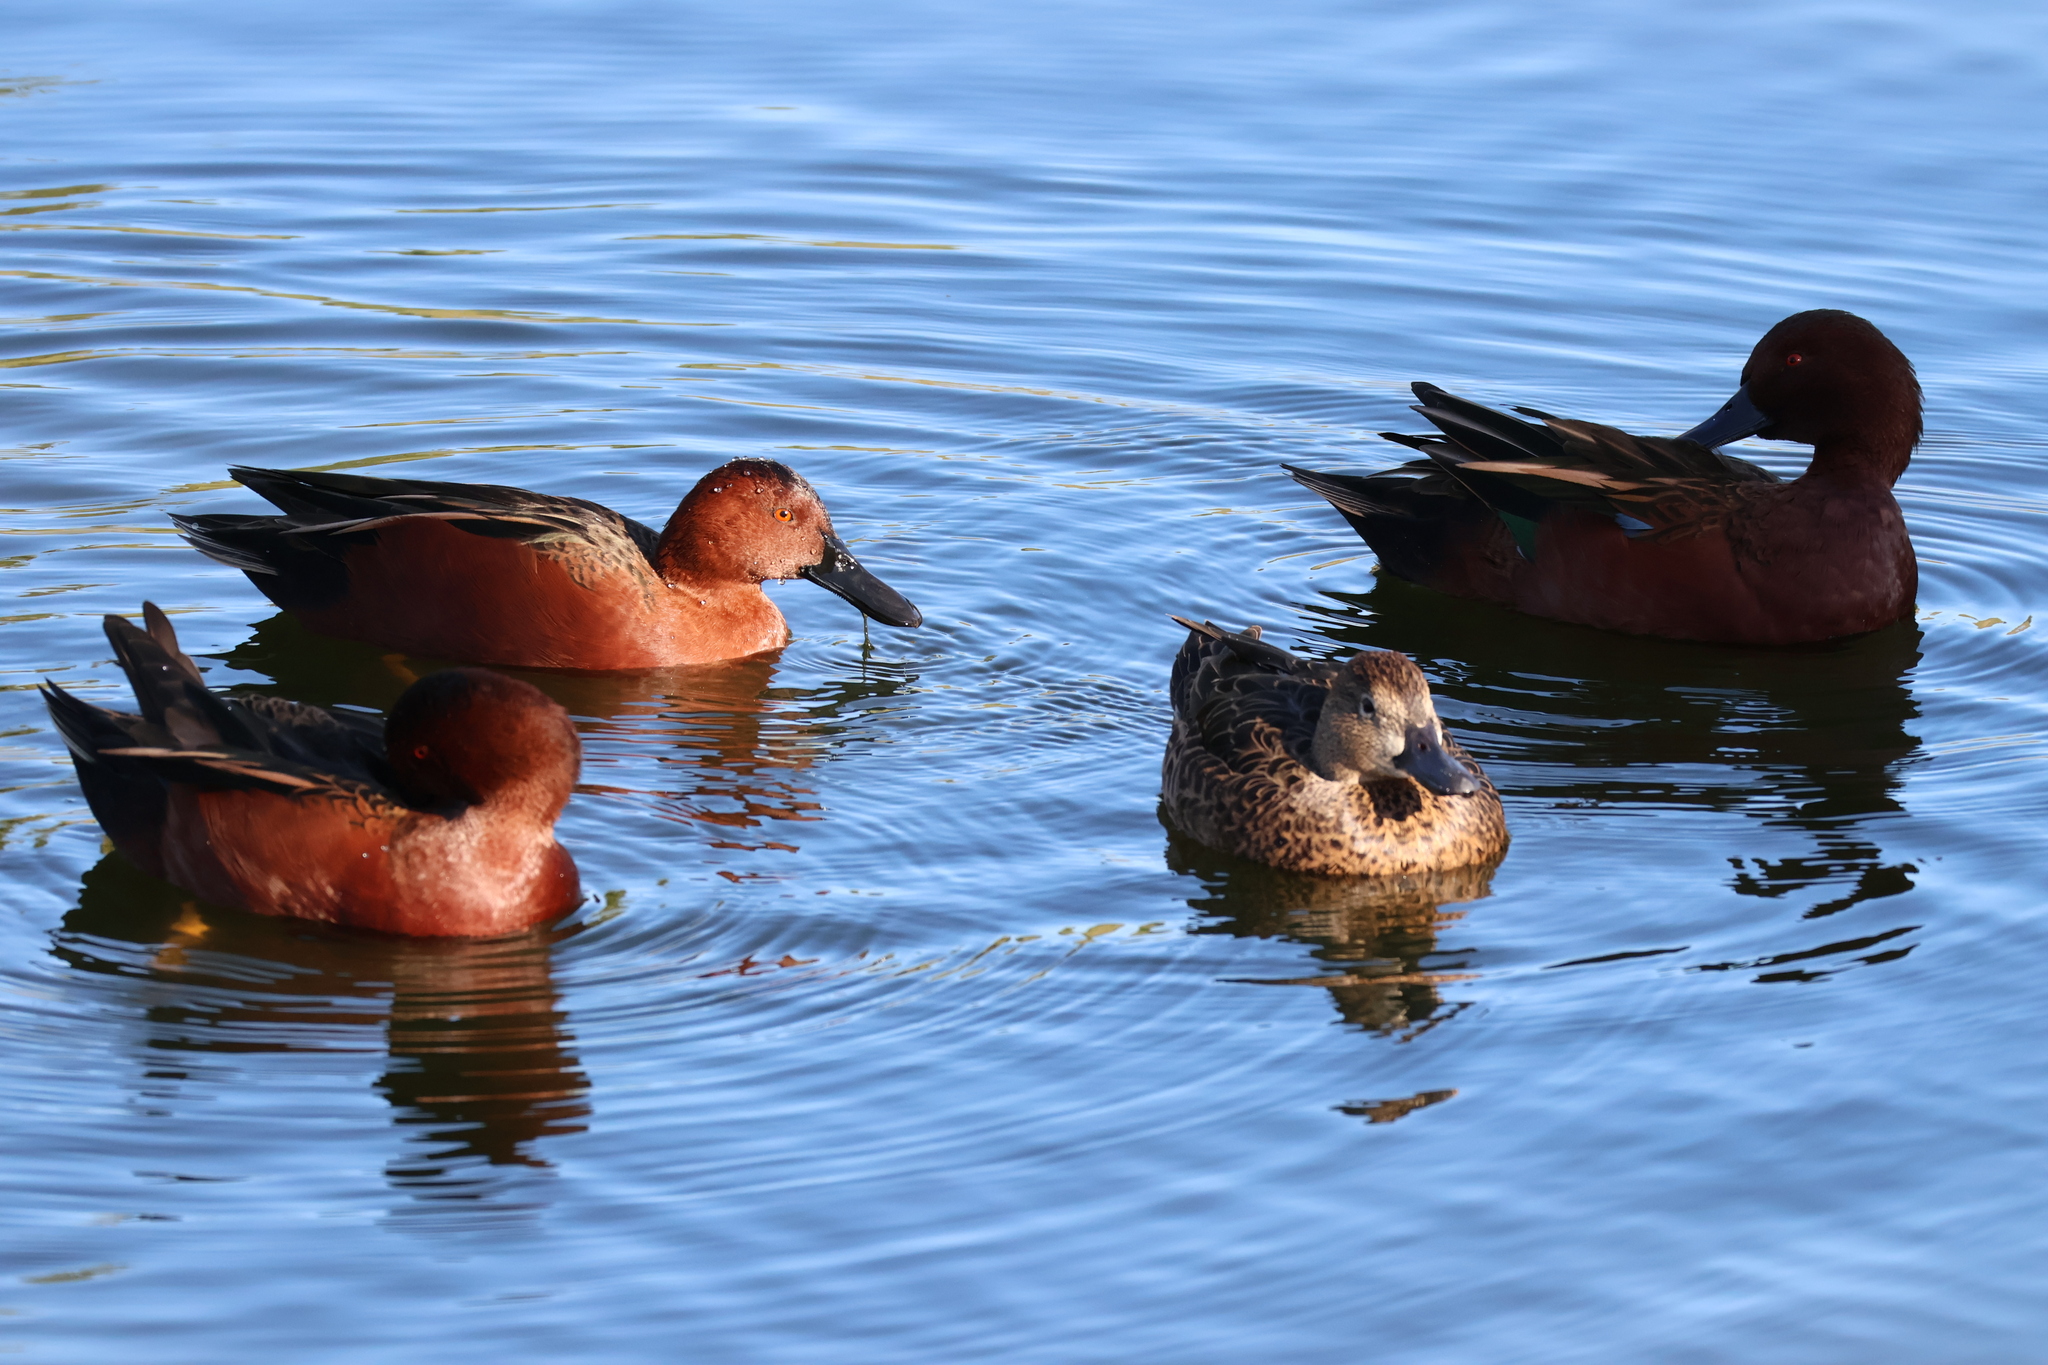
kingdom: Animalia
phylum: Chordata
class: Aves
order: Anseriformes
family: Anatidae
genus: Spatula
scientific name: Spatula cyanoptera
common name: Cinnamon teal
